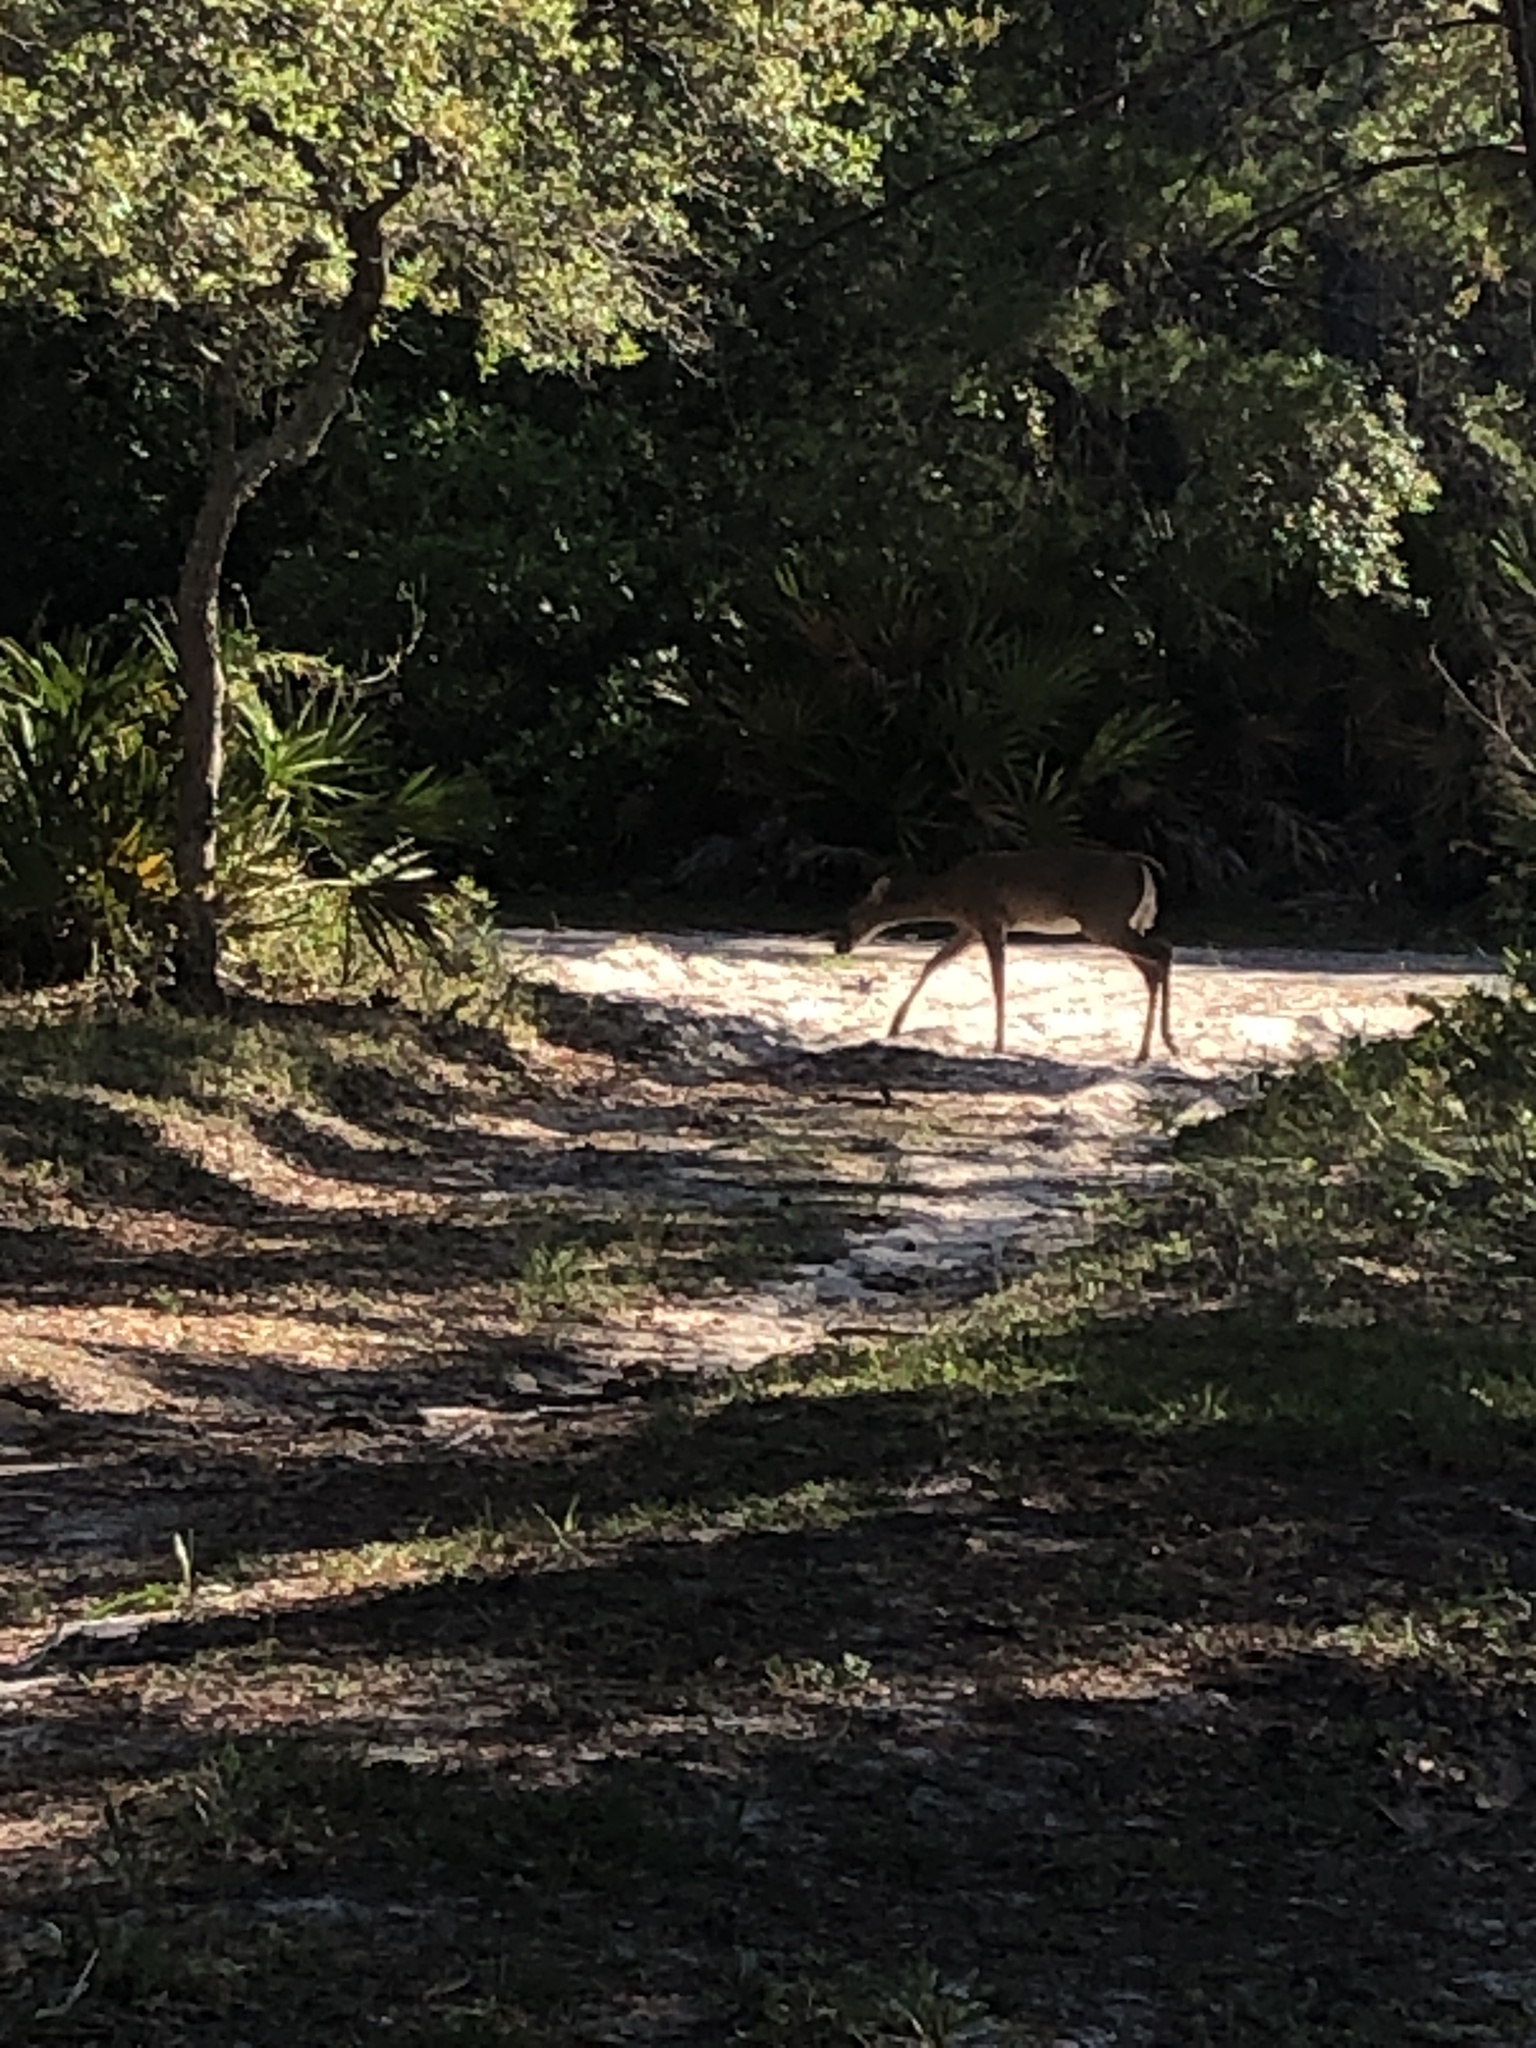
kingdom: Animalia
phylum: Chordata
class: Mammalia
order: Artiodactyla
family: Cervidae
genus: Odocoileus
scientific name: Odocoileus virginianus
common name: White-tailed deer
